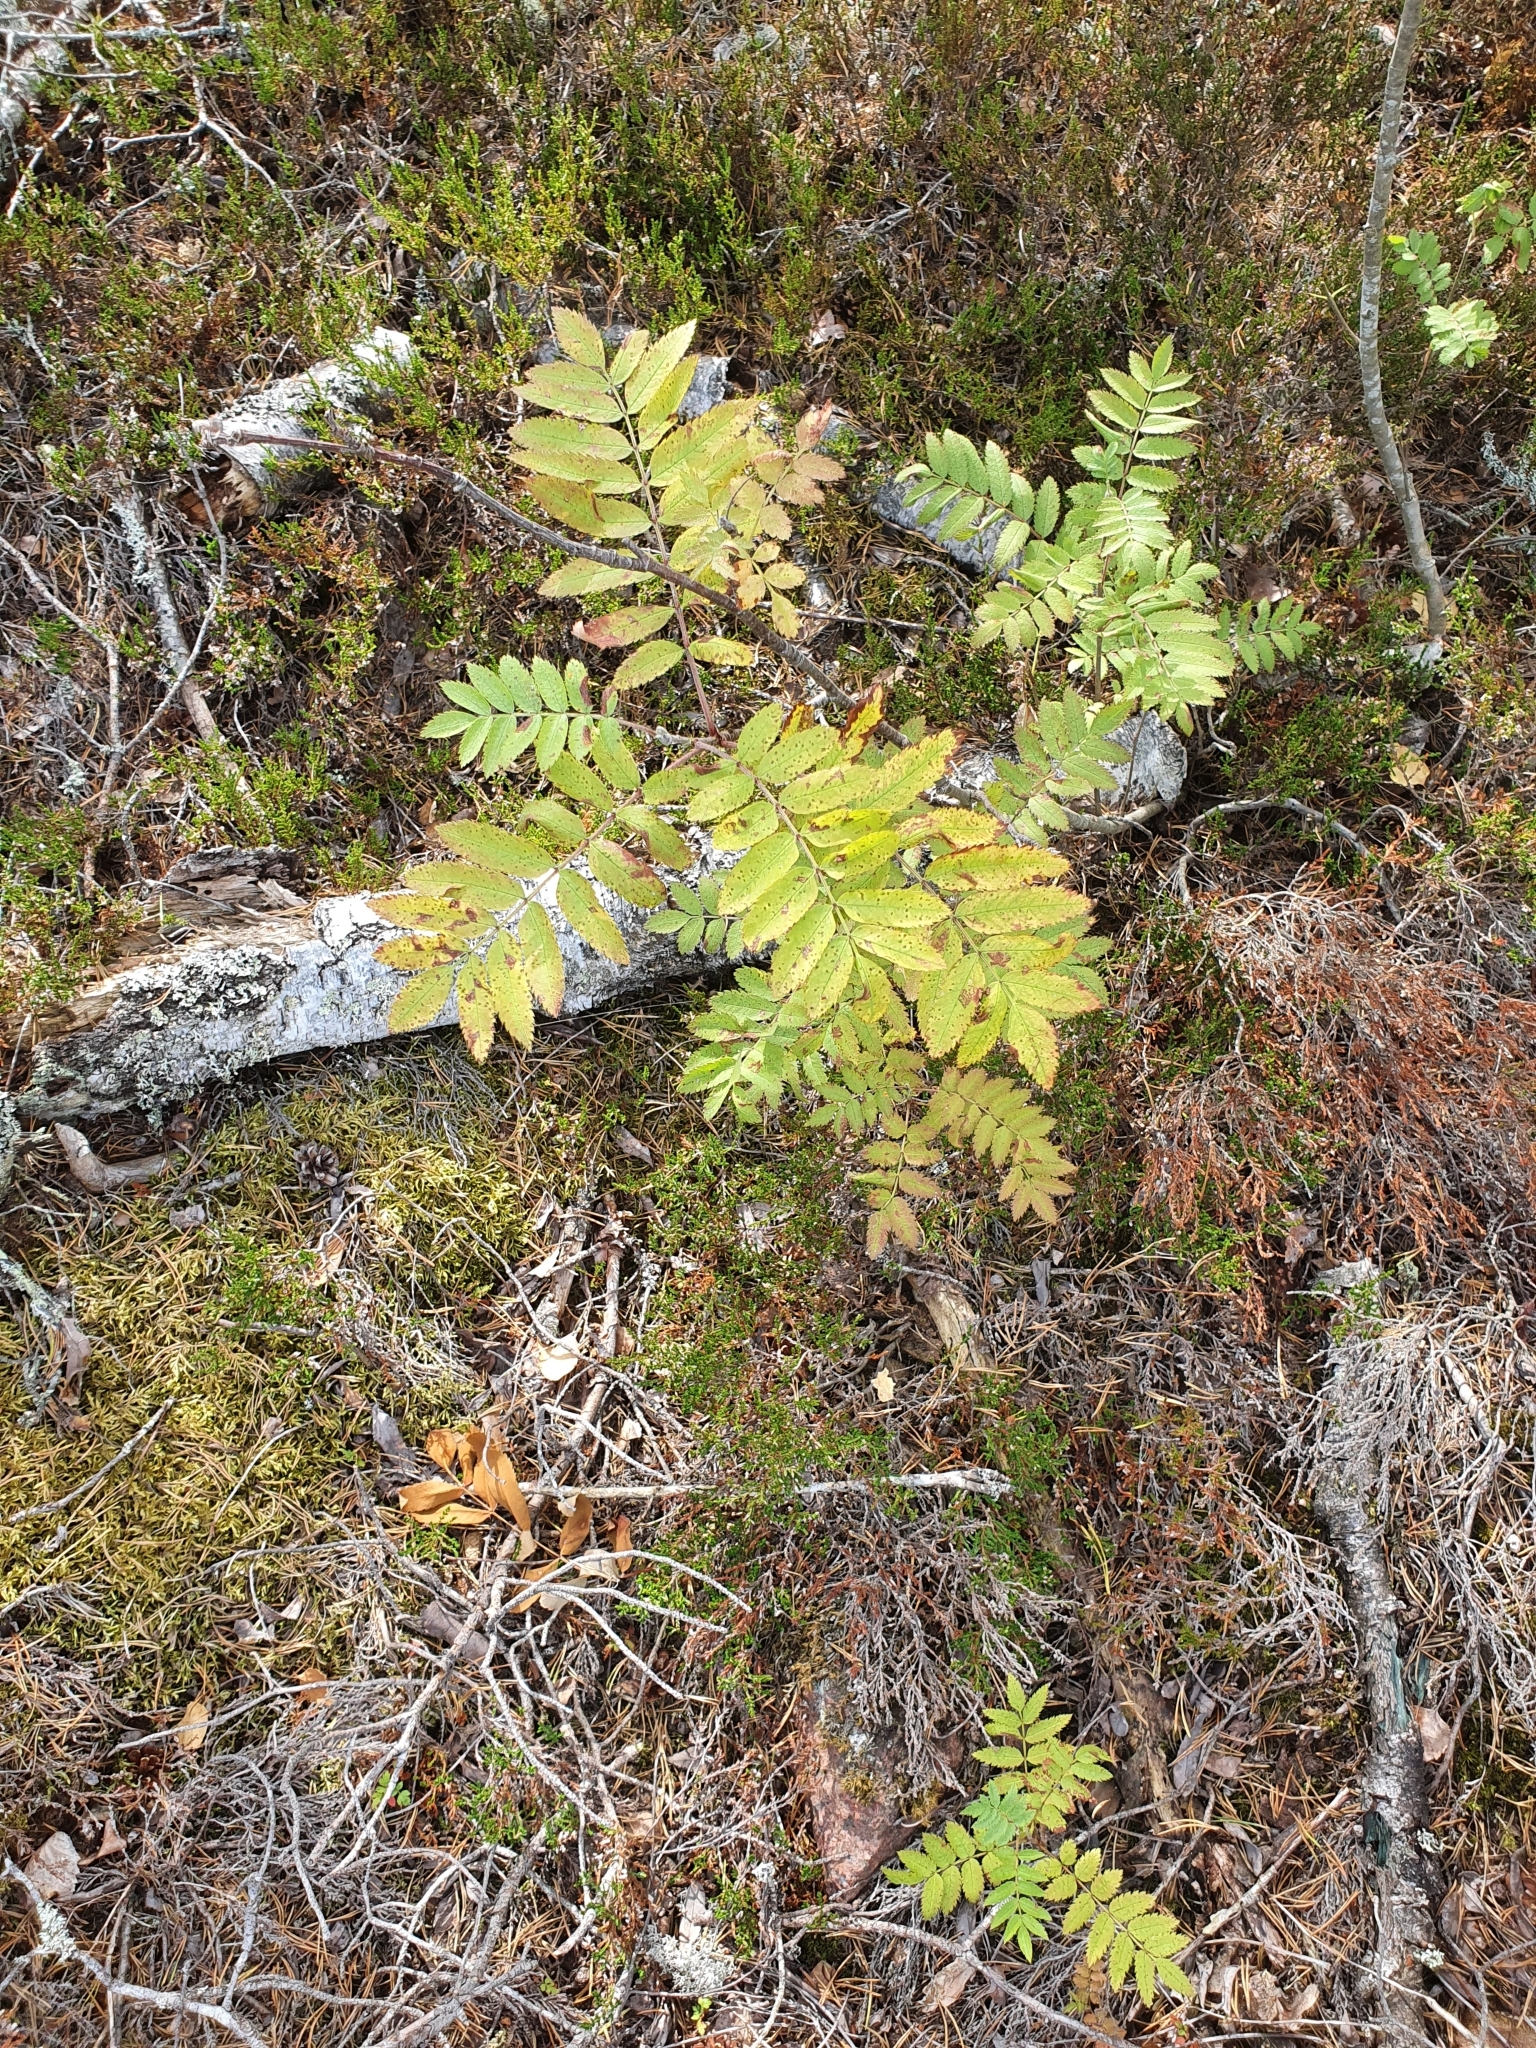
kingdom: Plantae
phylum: Tracheophyta
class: Magnoliopsida
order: Rosales
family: Rosaceae
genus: Sorbus
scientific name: Sorbus aucuparia
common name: Rowan
